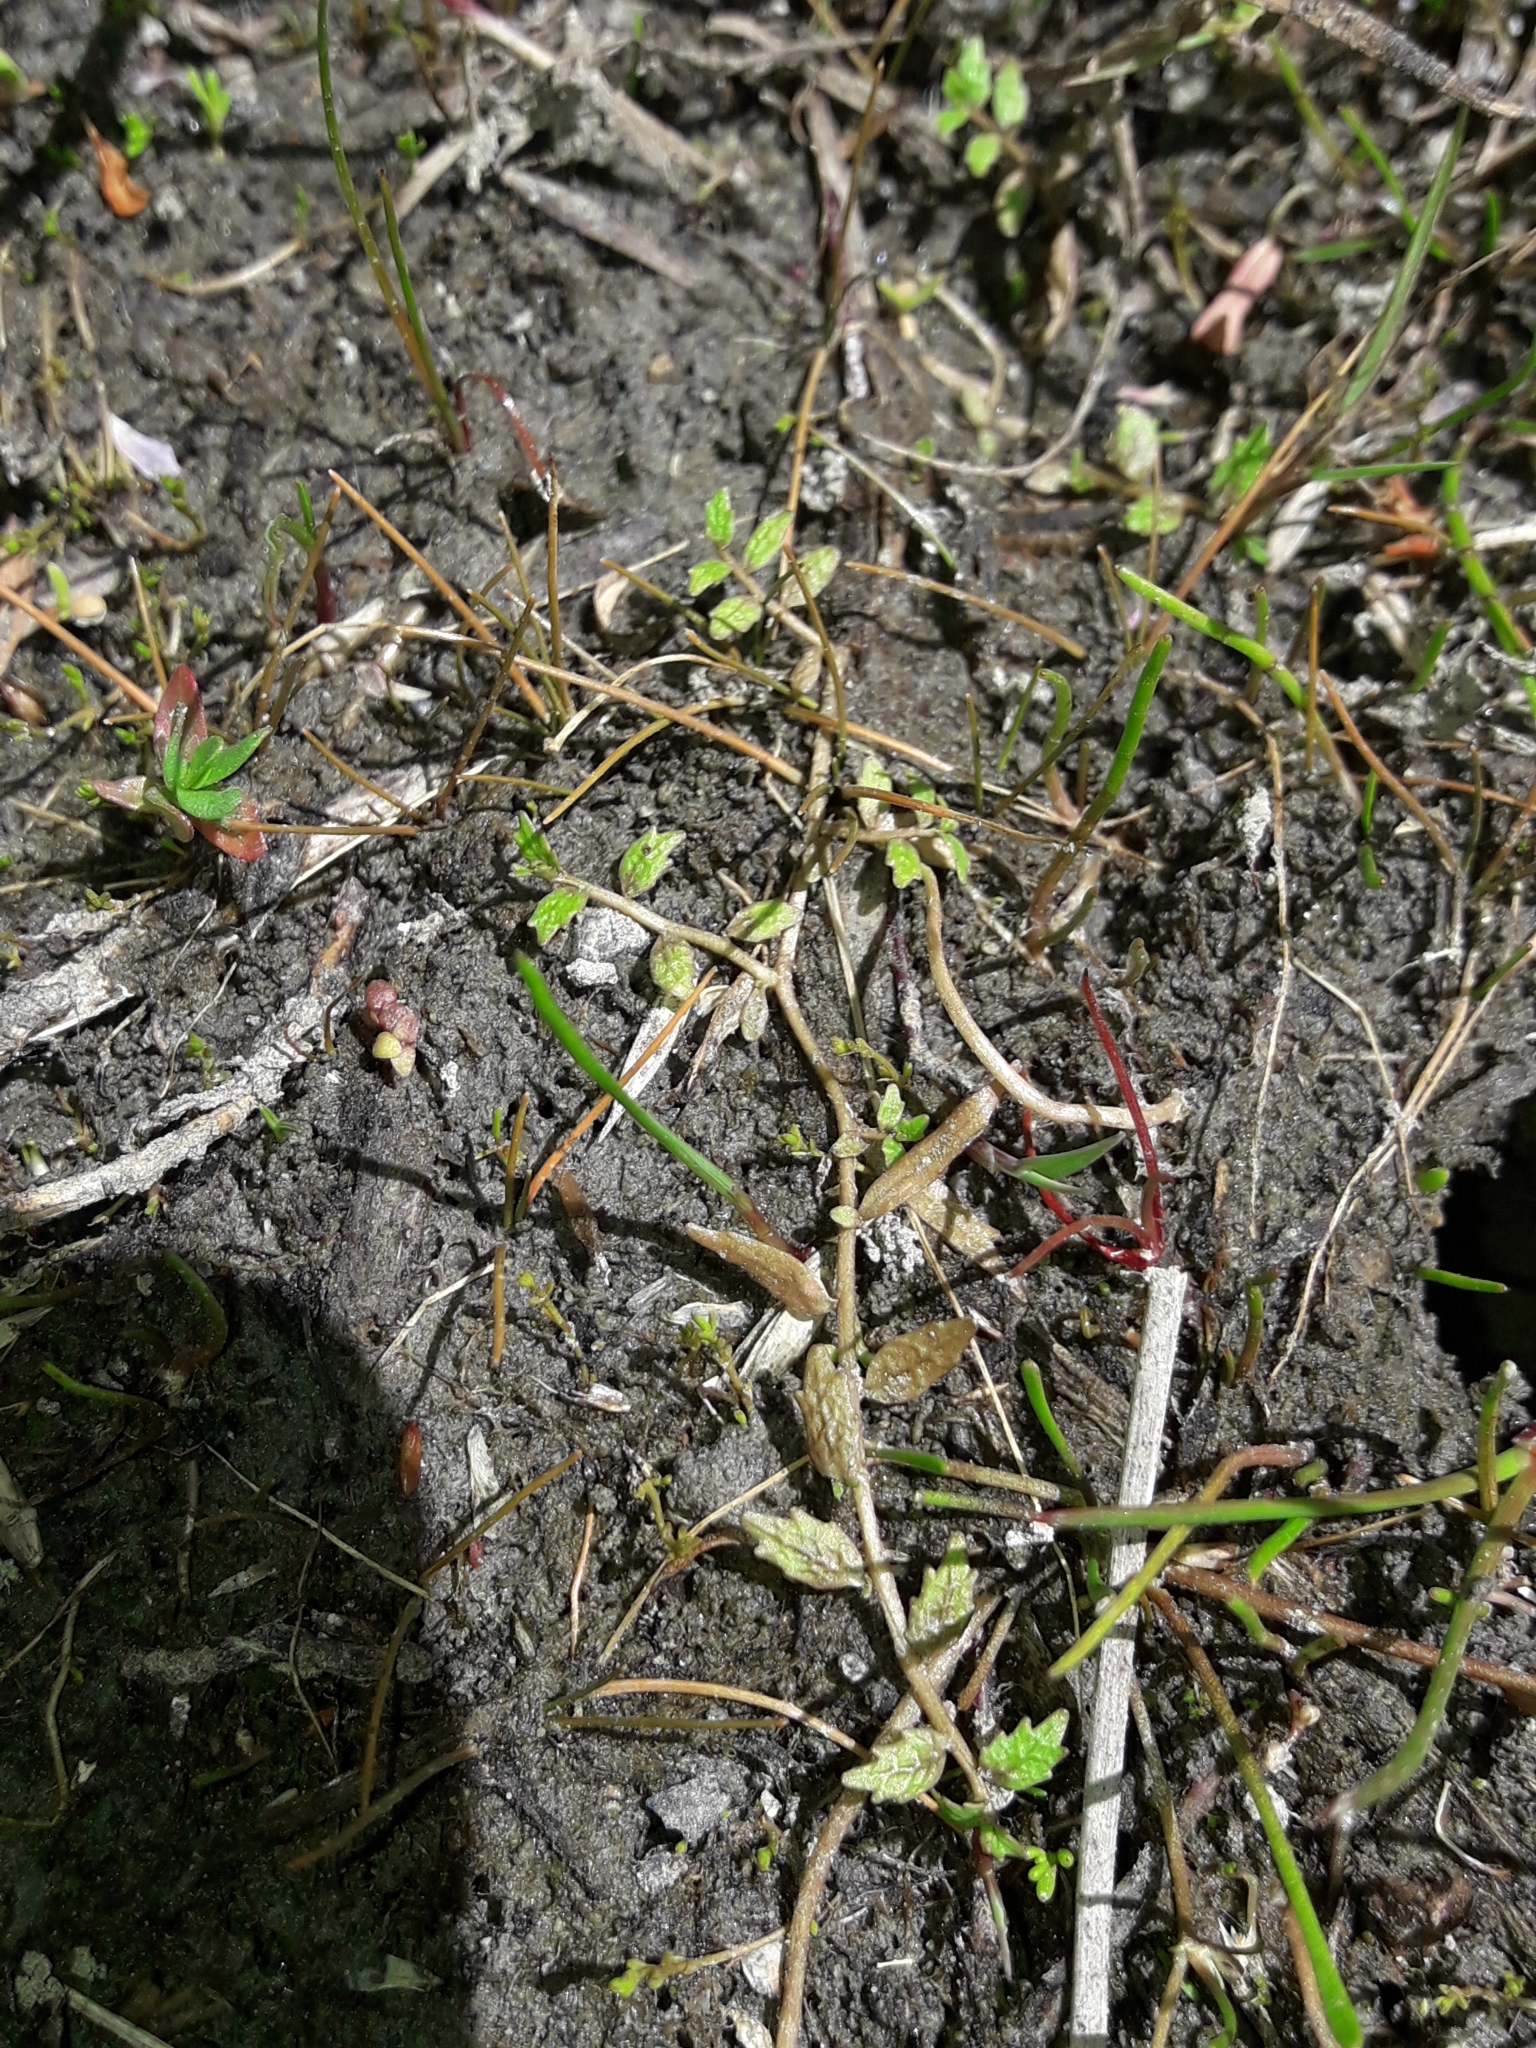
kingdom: Plantae
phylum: Tracheophyta
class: Magnoliopsida
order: Asterales
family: Campanulaceae
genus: Lobelia
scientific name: Lobelia perpusilla
